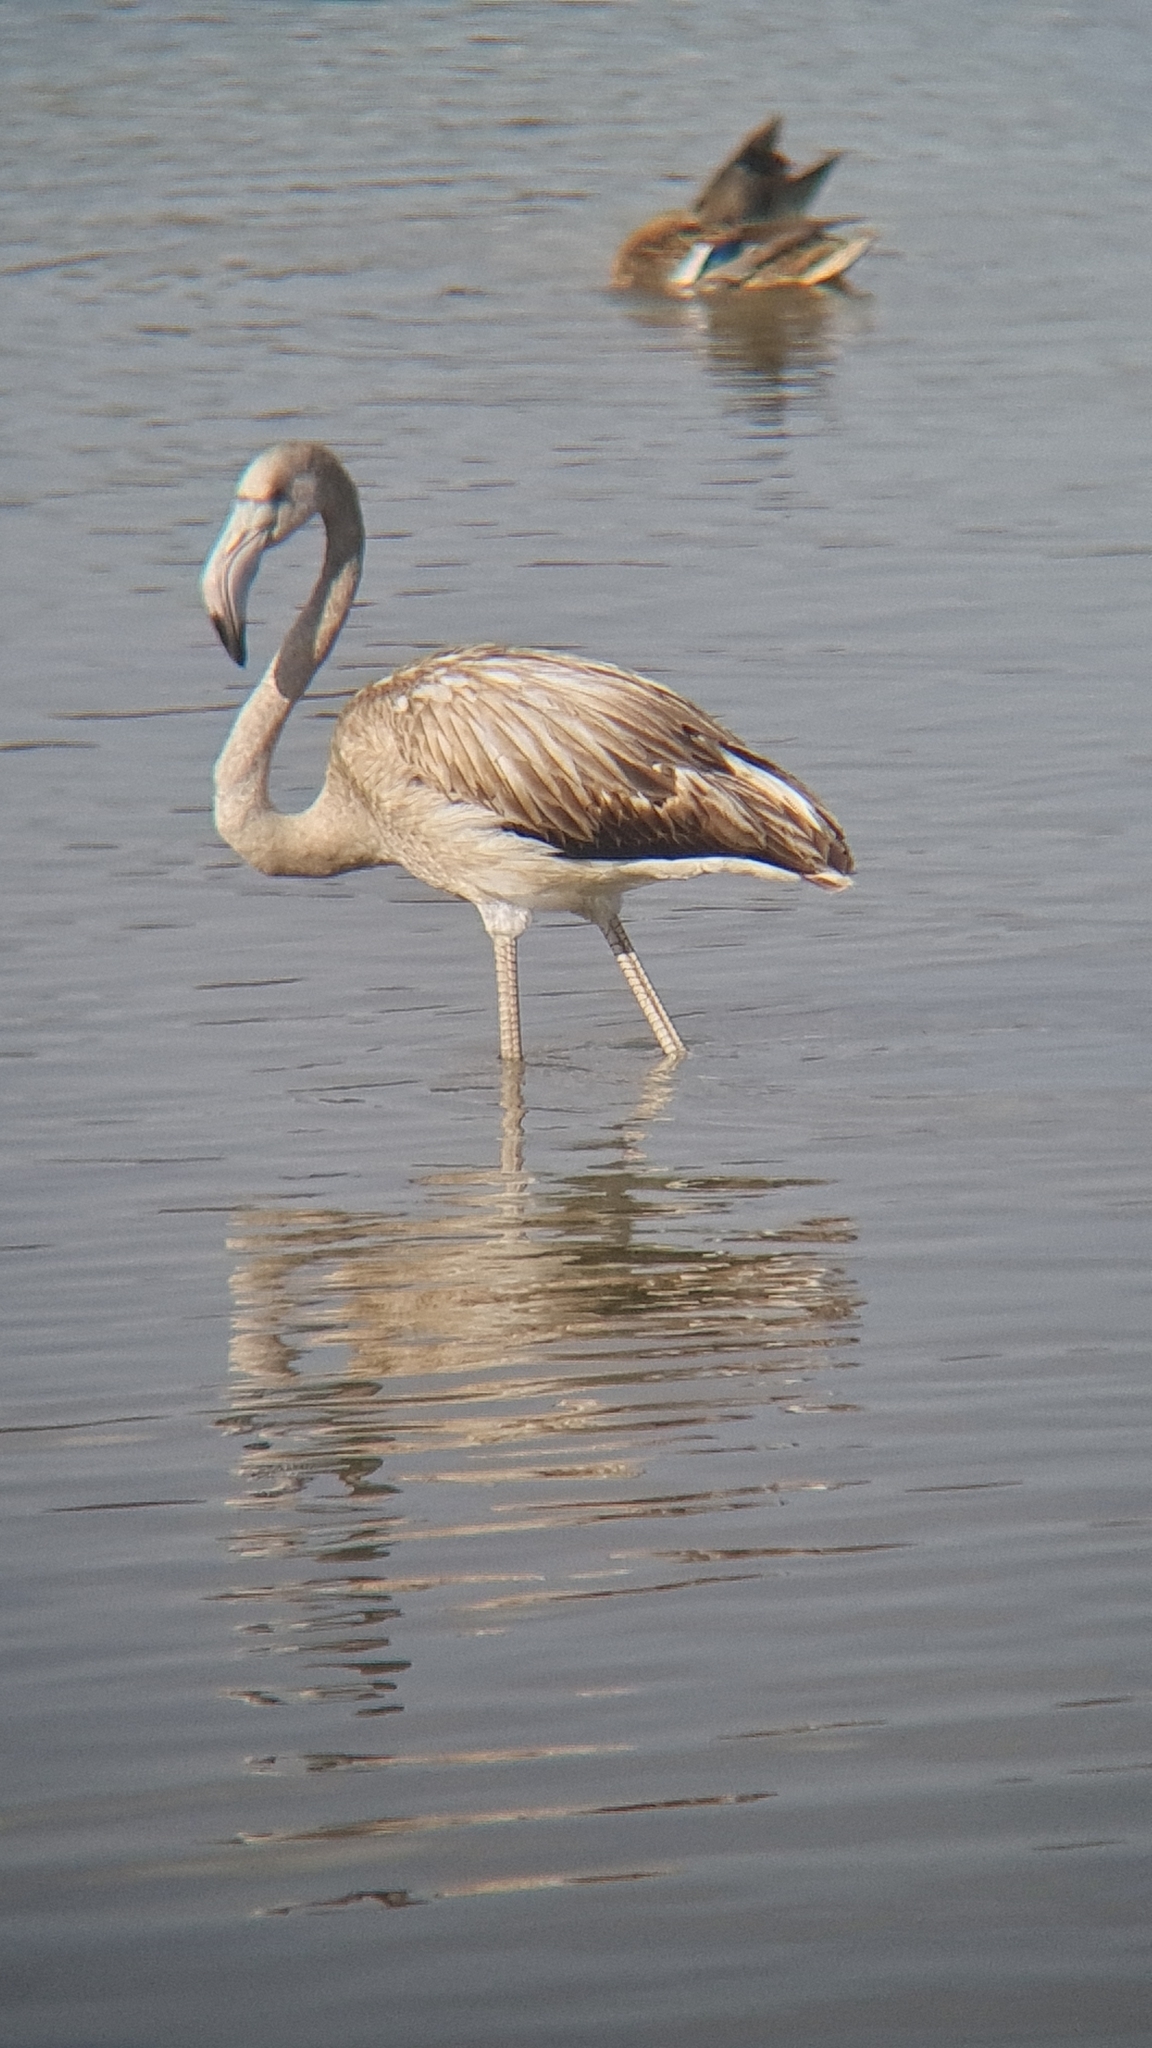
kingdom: Animalia
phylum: Chordata
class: Aves
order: Phoenicopteriformes
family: Phoenicopteridae
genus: Phoenicopterus
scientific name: Phoenicopterus roseus
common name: Greater flamingo
